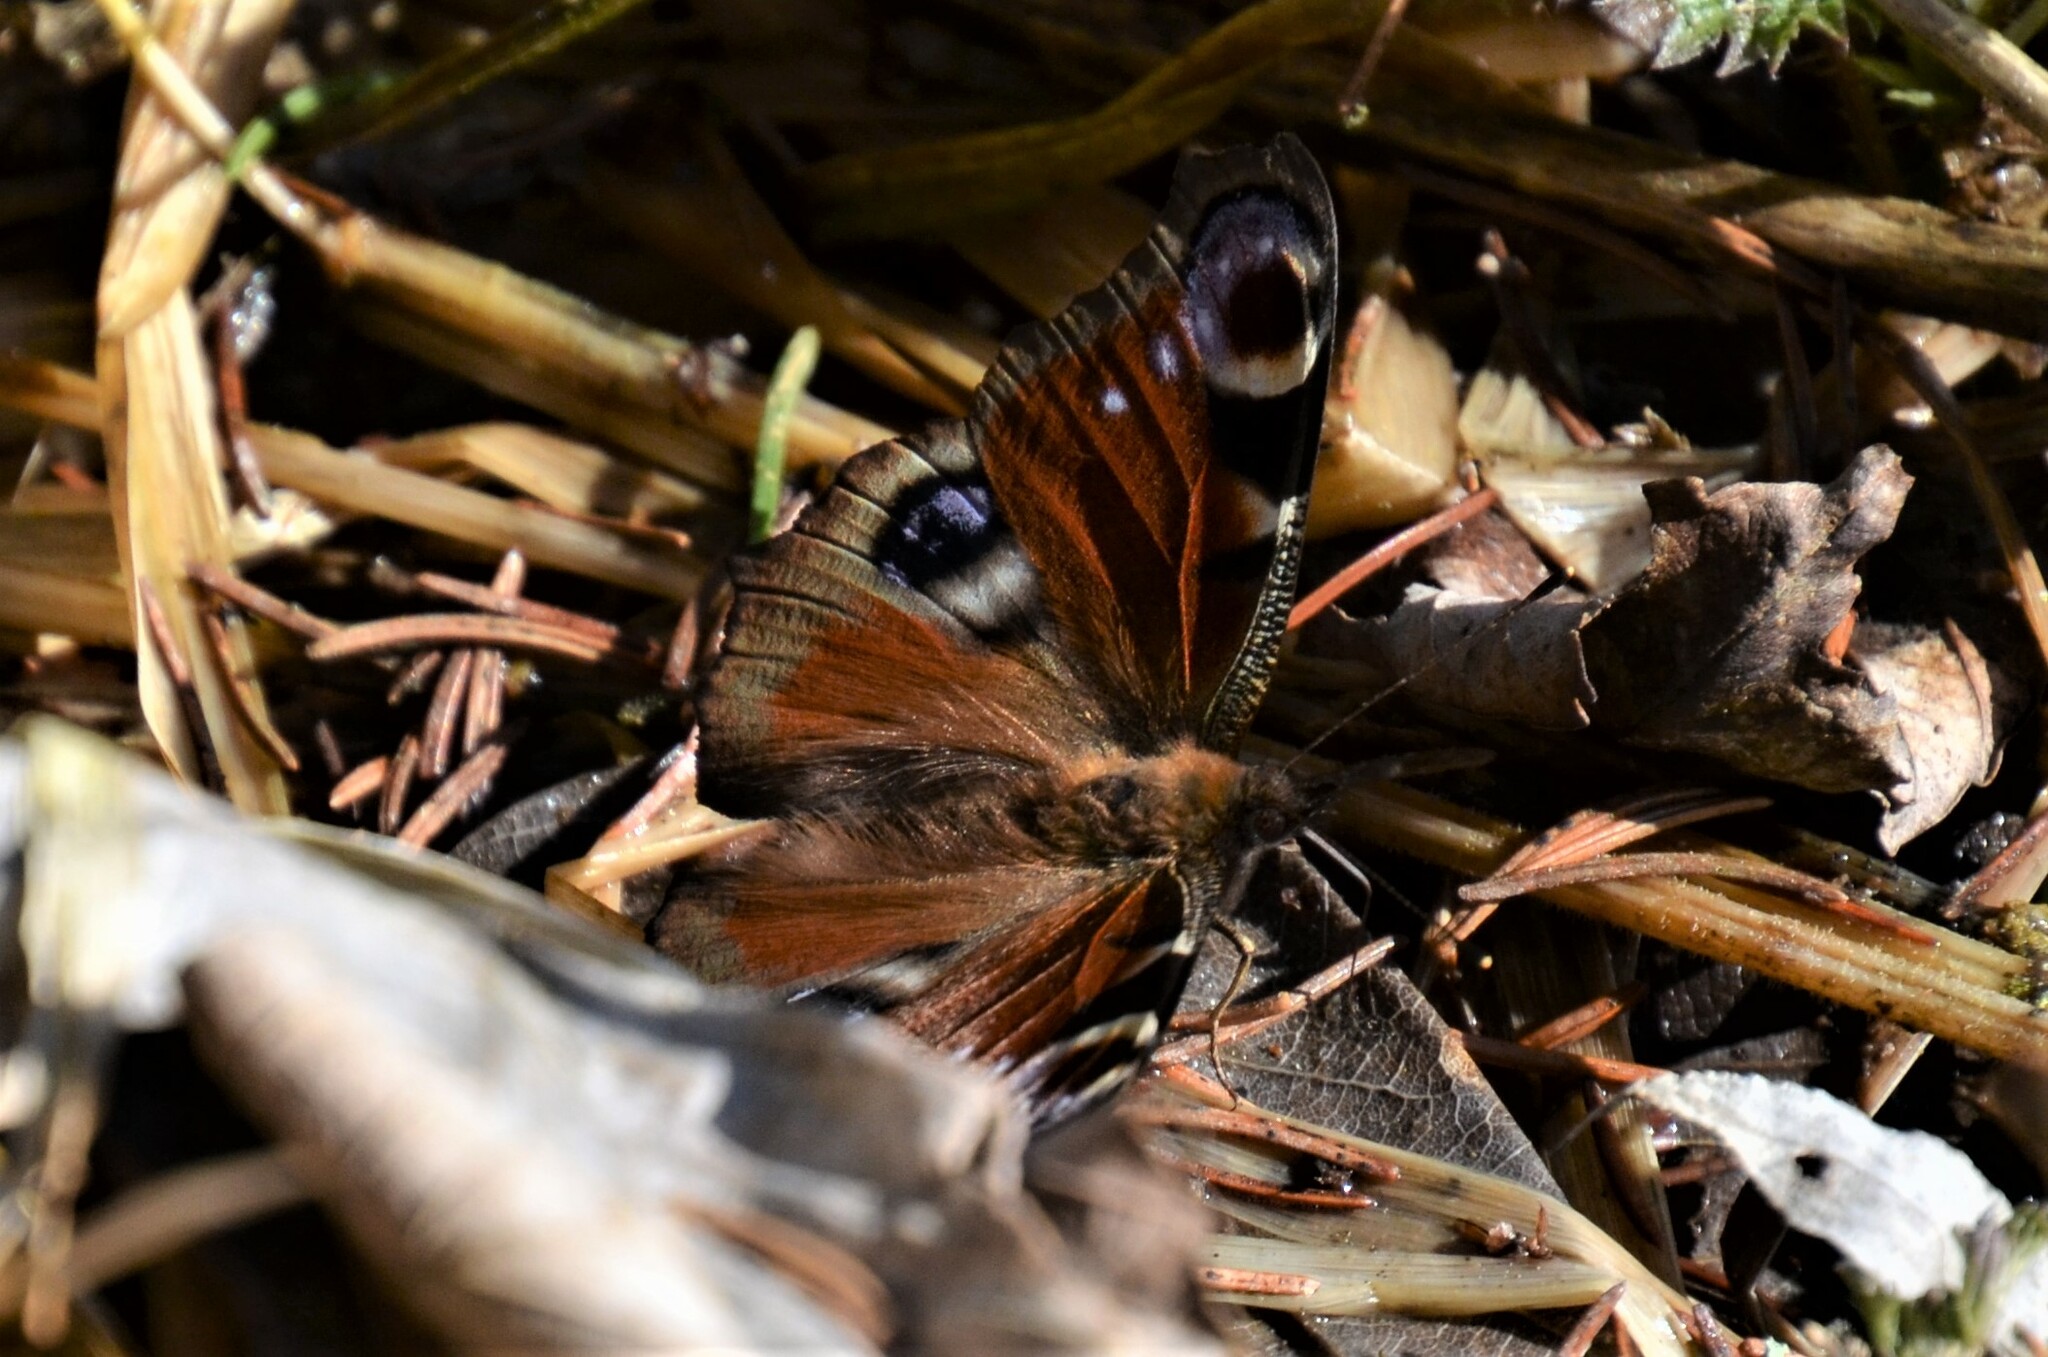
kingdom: Animalia
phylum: Arthropoda
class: Insecta
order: Lepidoptera
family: Nymphalidae
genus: Aglais
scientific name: Aglais io
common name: Peacock
